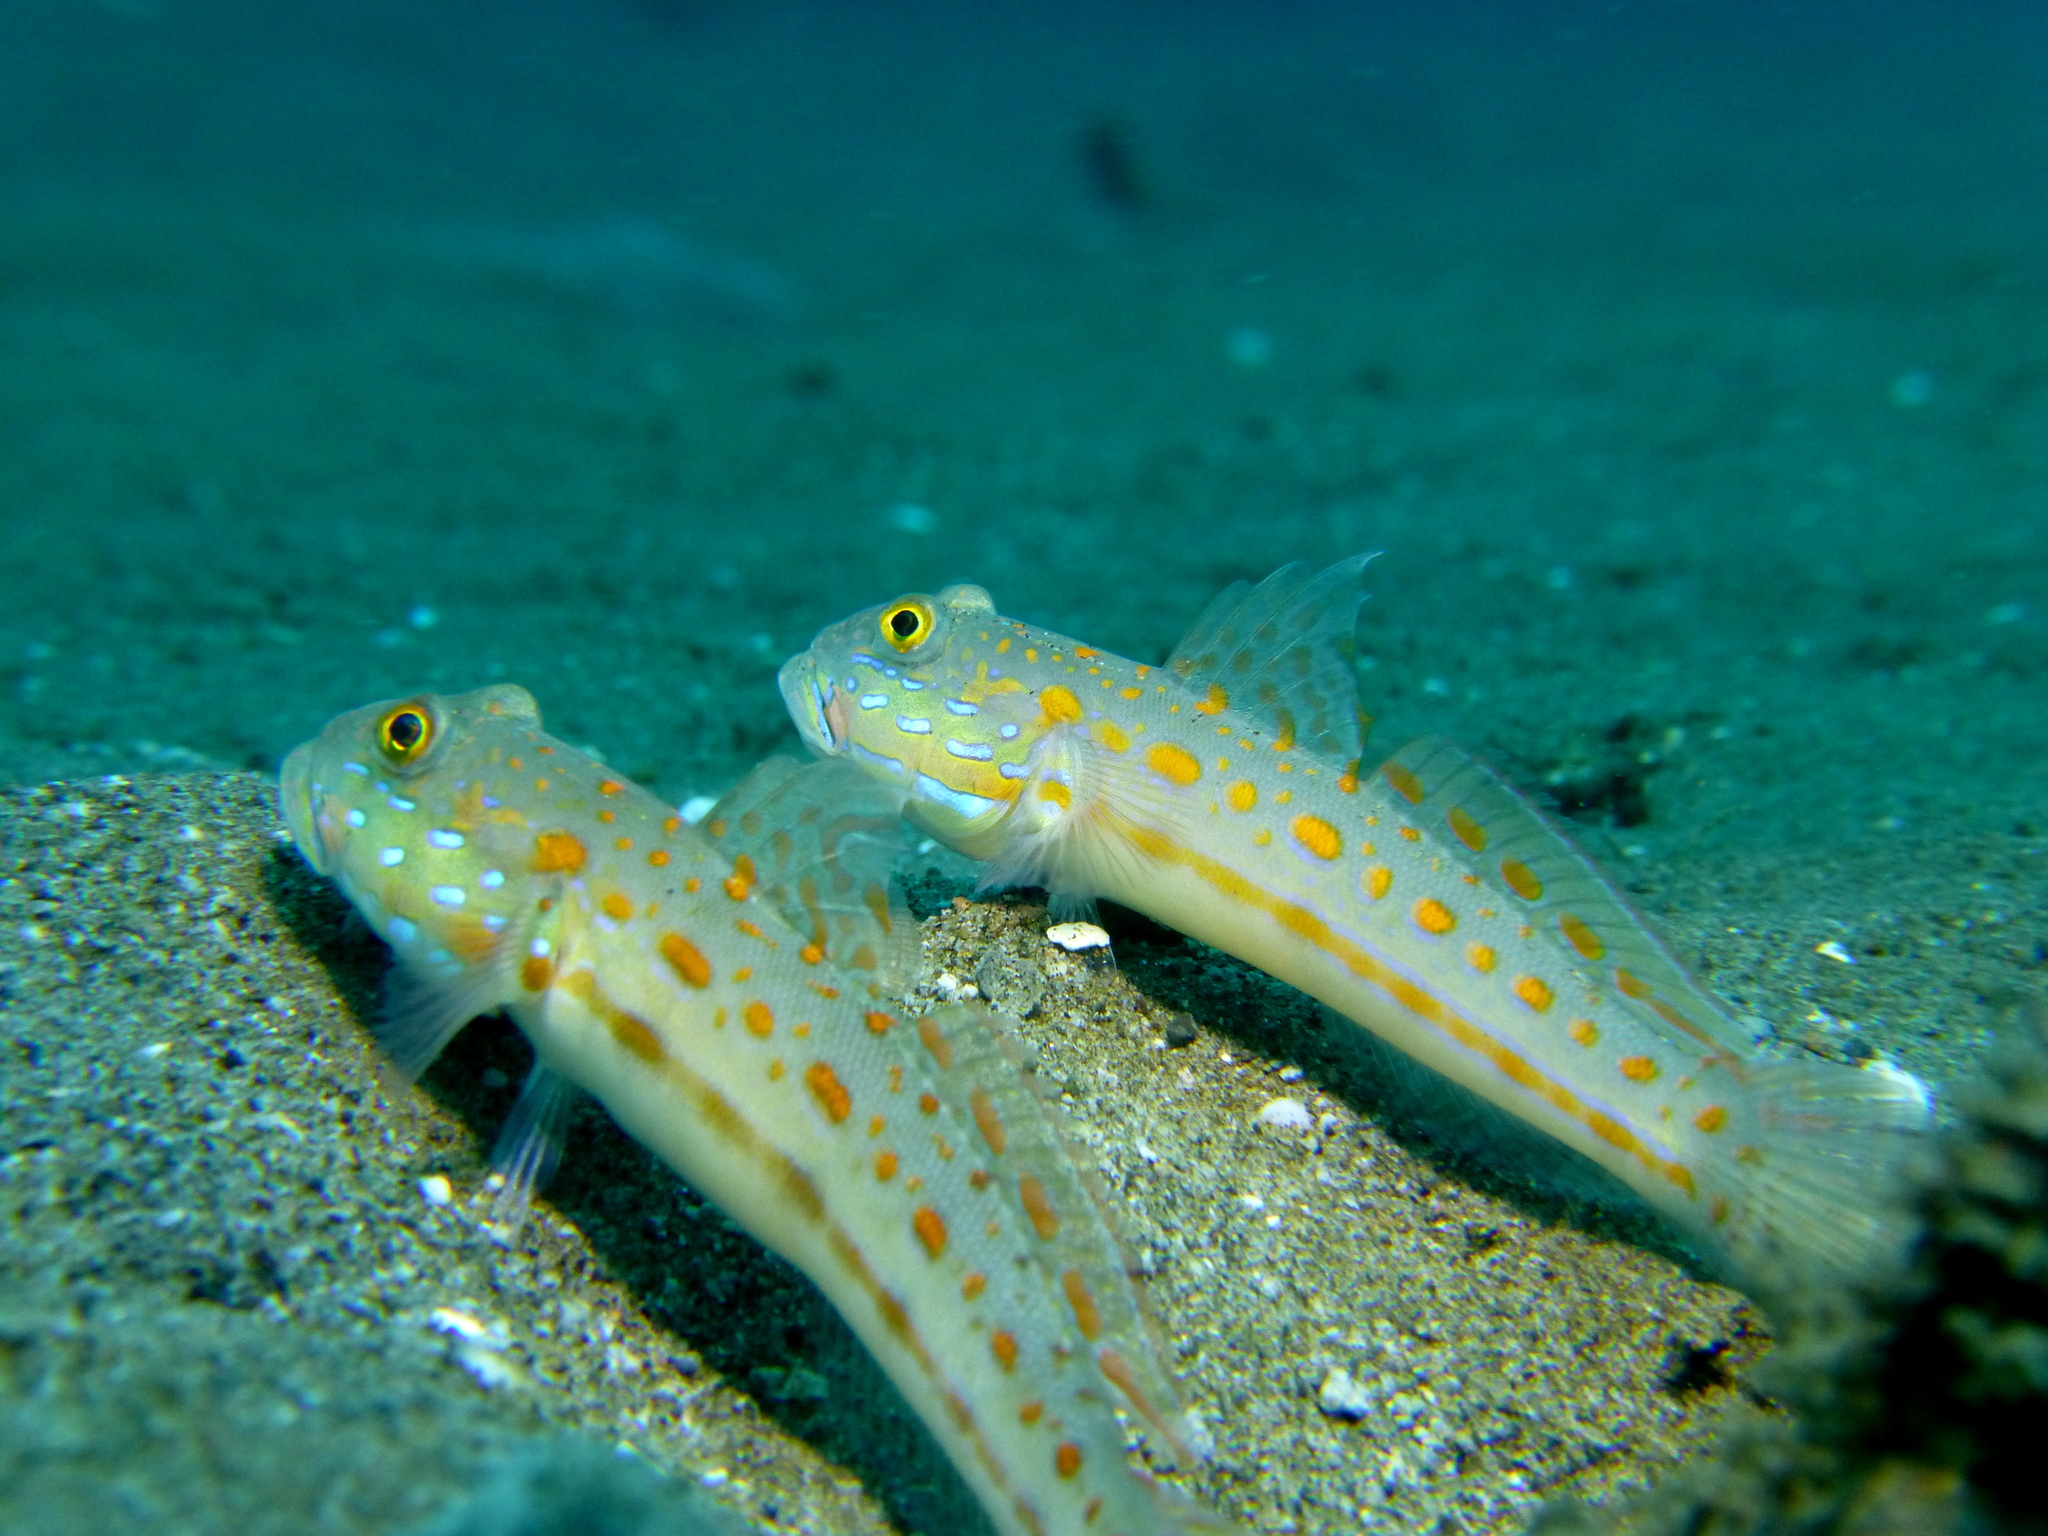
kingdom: Animalia
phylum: Chordata
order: Perciformes
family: Gobiidae
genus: Valenciennea
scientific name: Valenciennea puellaris
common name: Orange-dashed goby
